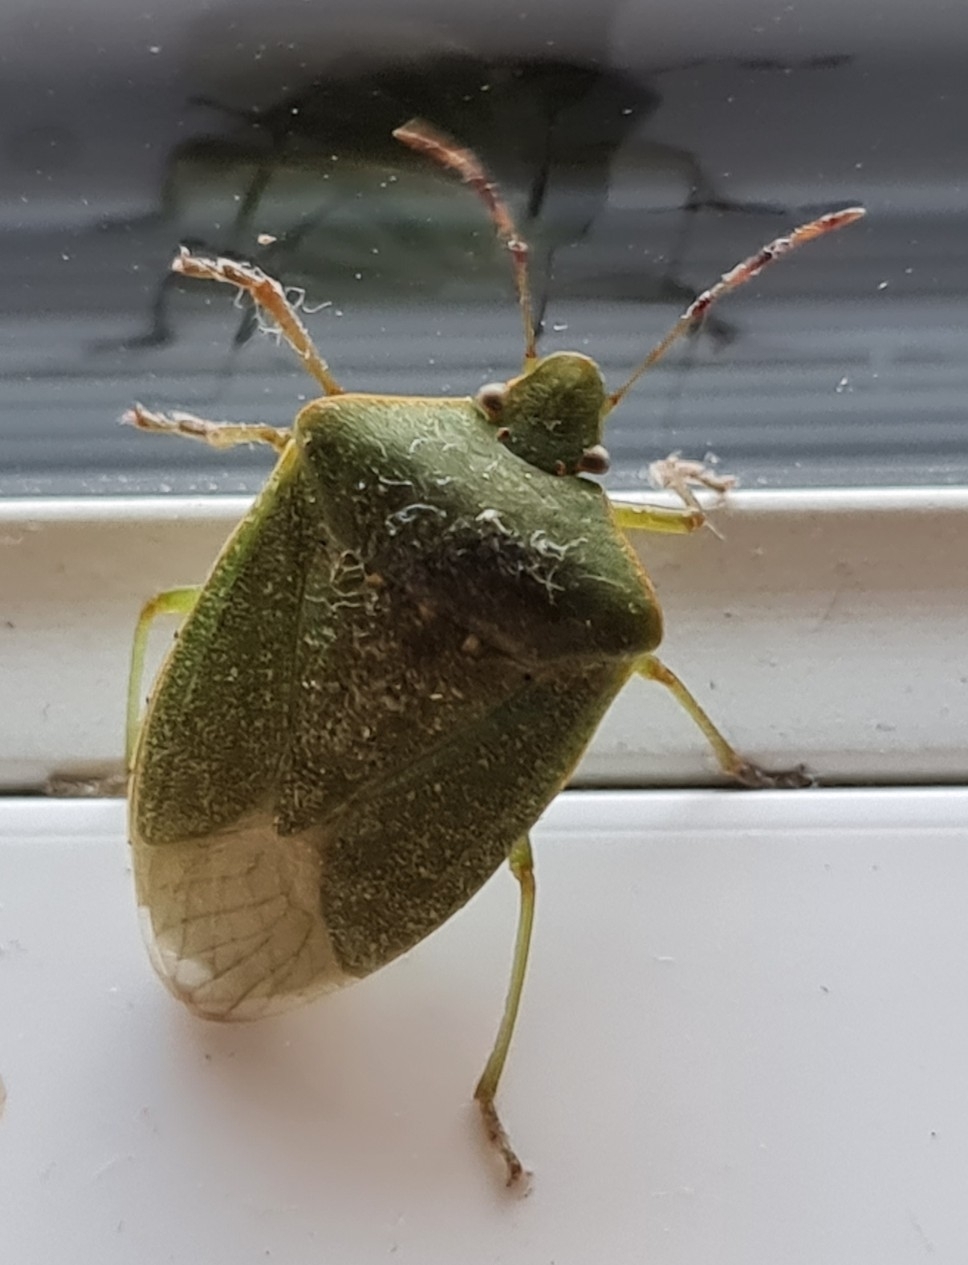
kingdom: Animalia
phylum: Arthropoda
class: Insecta
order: Hemiptera
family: Pentatomidae
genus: Nezara
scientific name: Nezara viridula
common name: Southern green stink bug
